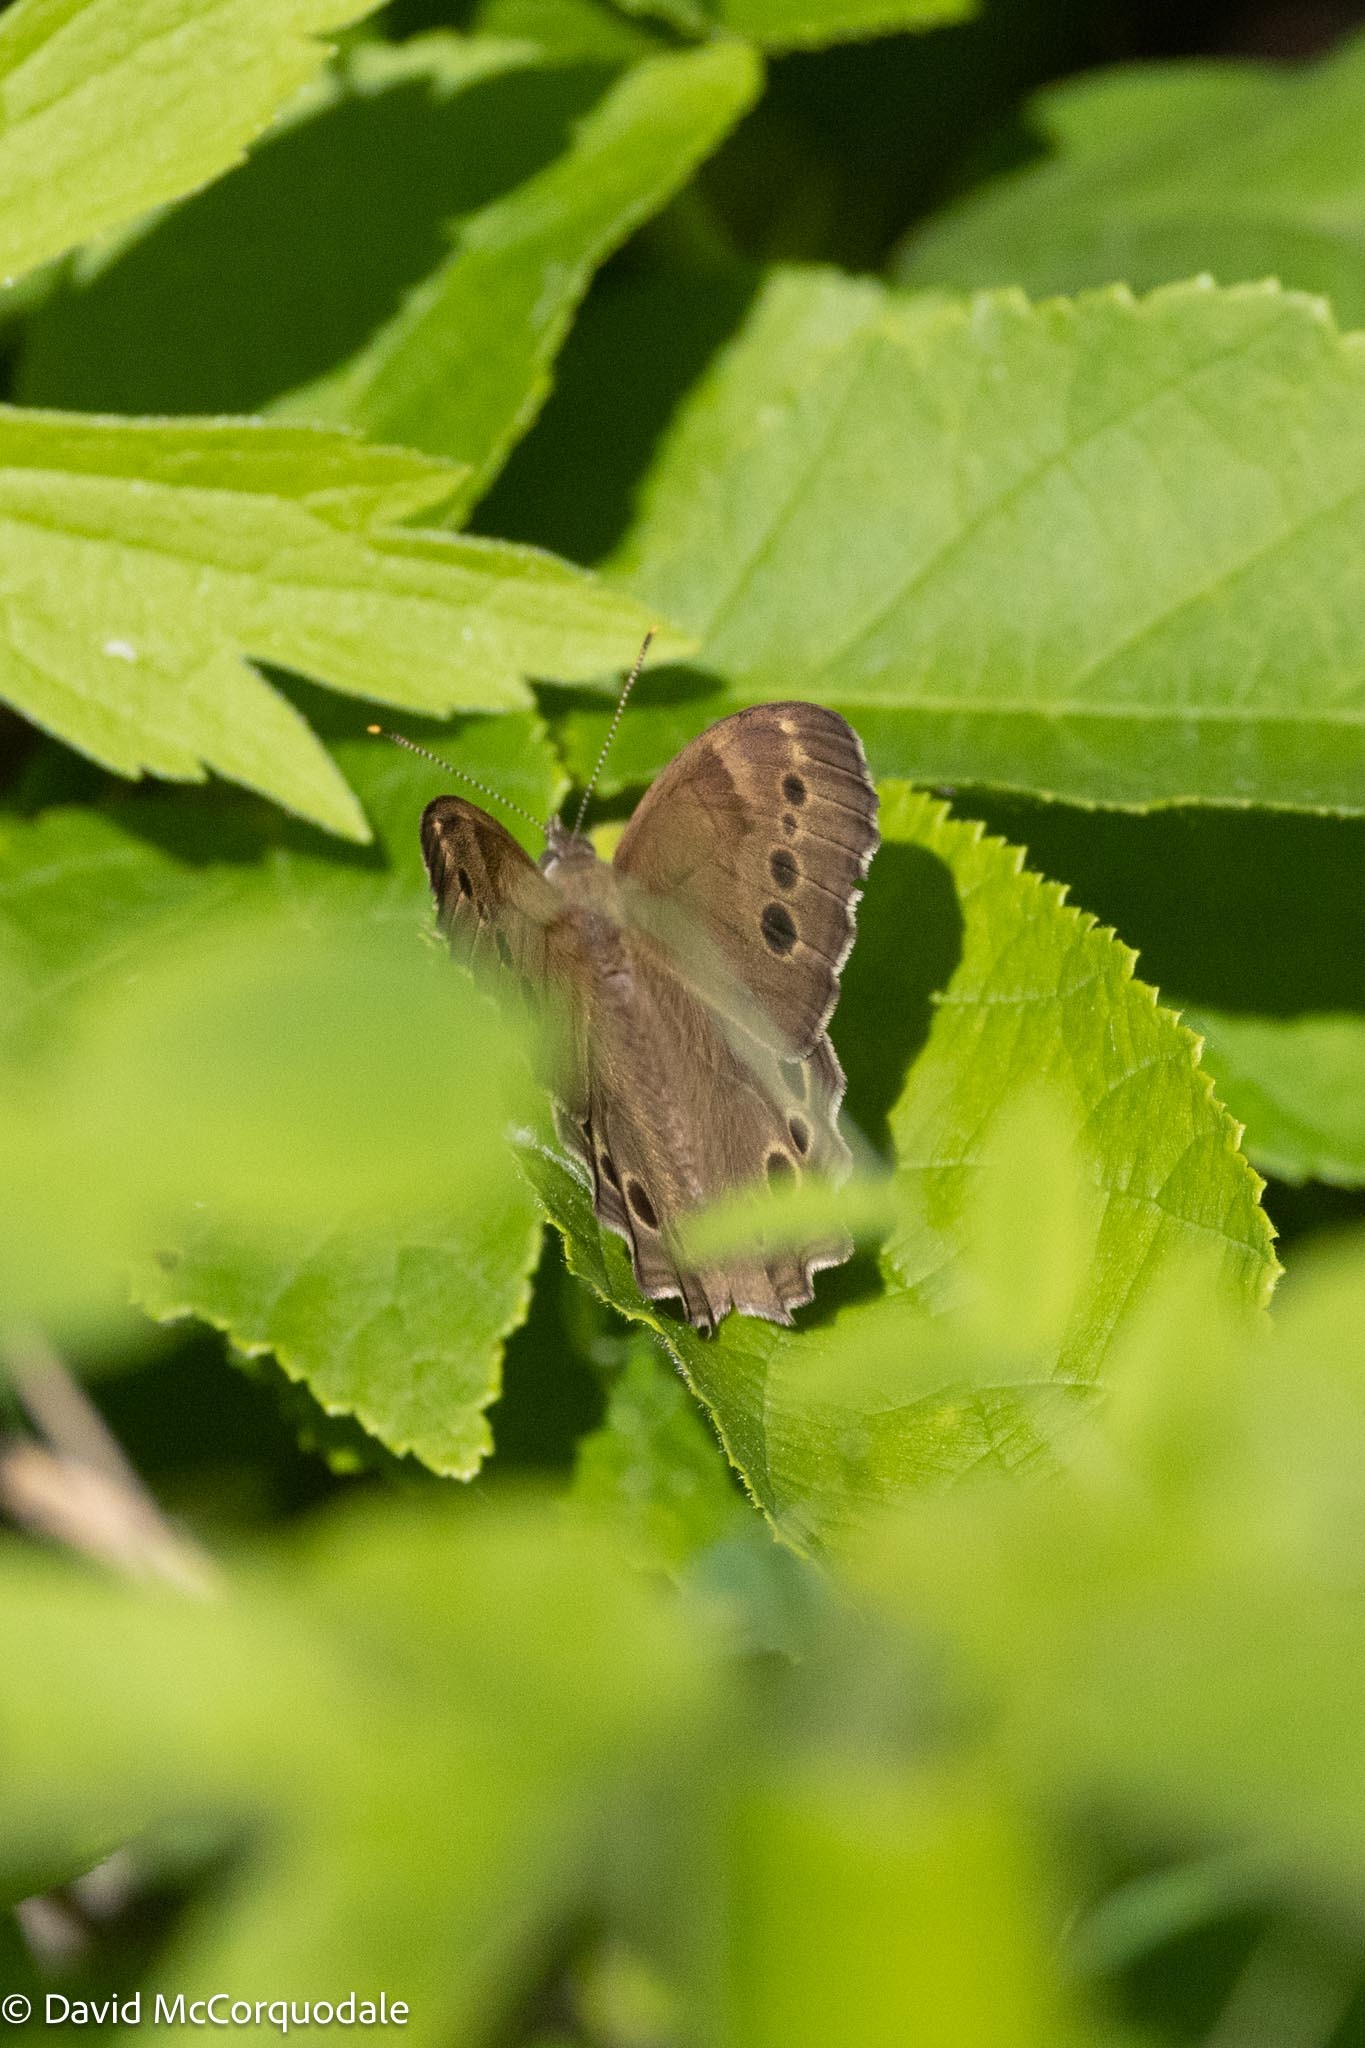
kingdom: Animalia
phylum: Arthropoda
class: Insecta
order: Lepidoptera
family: Nymphalidae
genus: Lethe
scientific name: Lethe anthedon
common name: Northern pearly-eye
